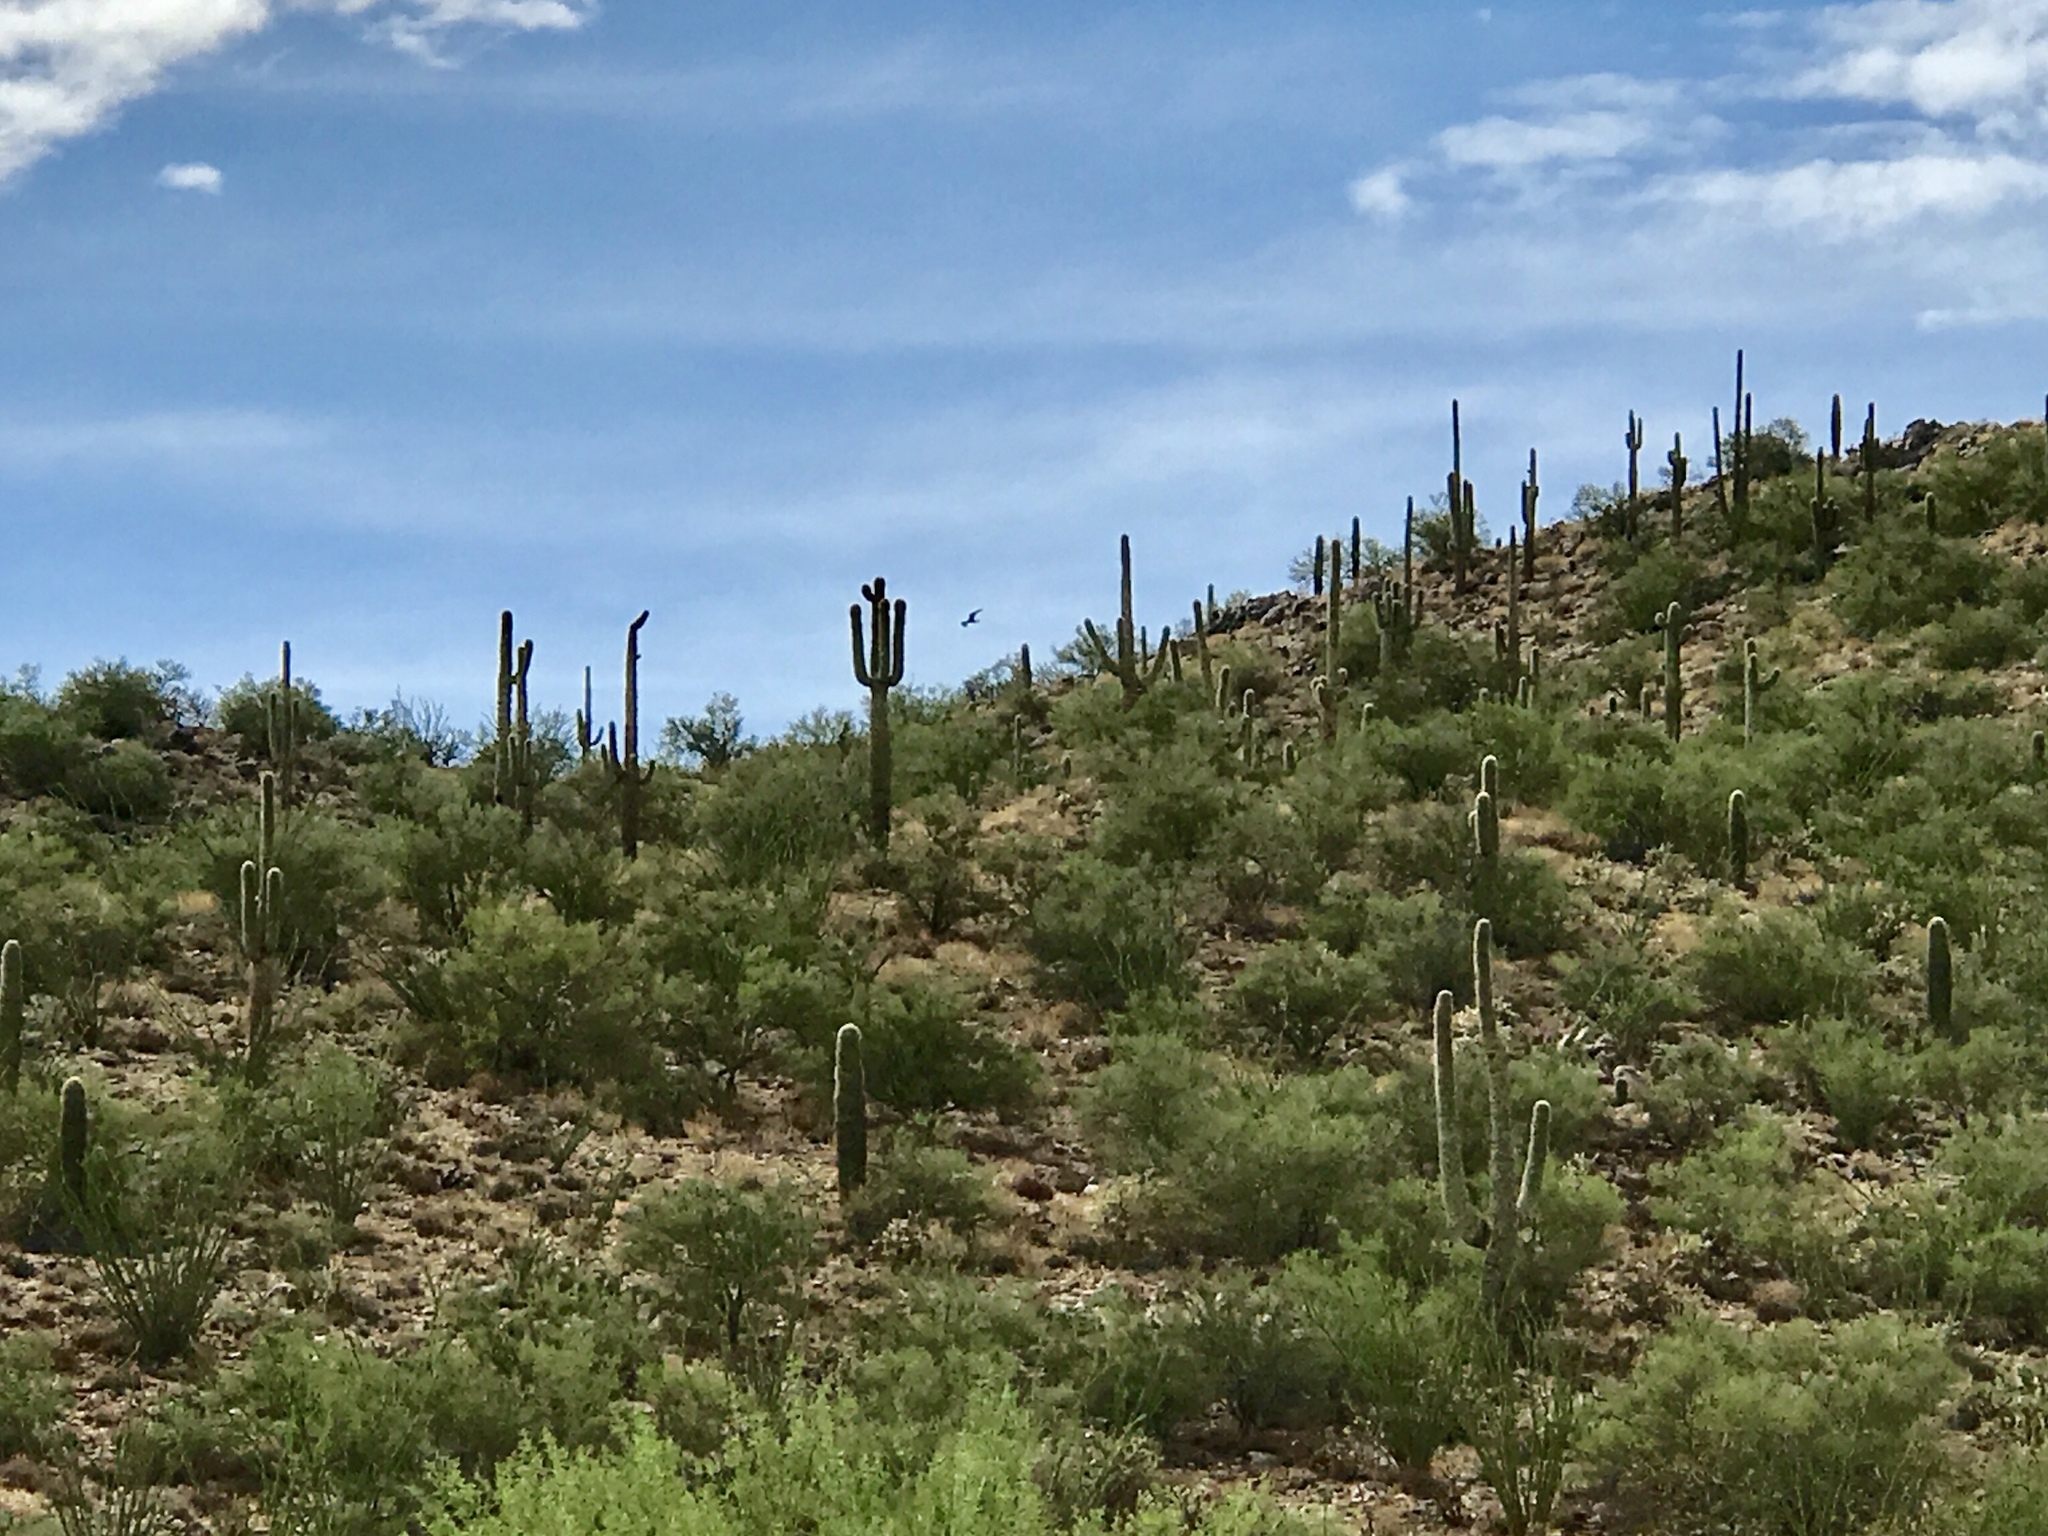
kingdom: Plantae
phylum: Tracheophyta
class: Magnoliopsida
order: Caryophyllales
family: Cactaceae
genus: Carnegiea
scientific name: Carnegiea gigantea
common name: Saguaro
